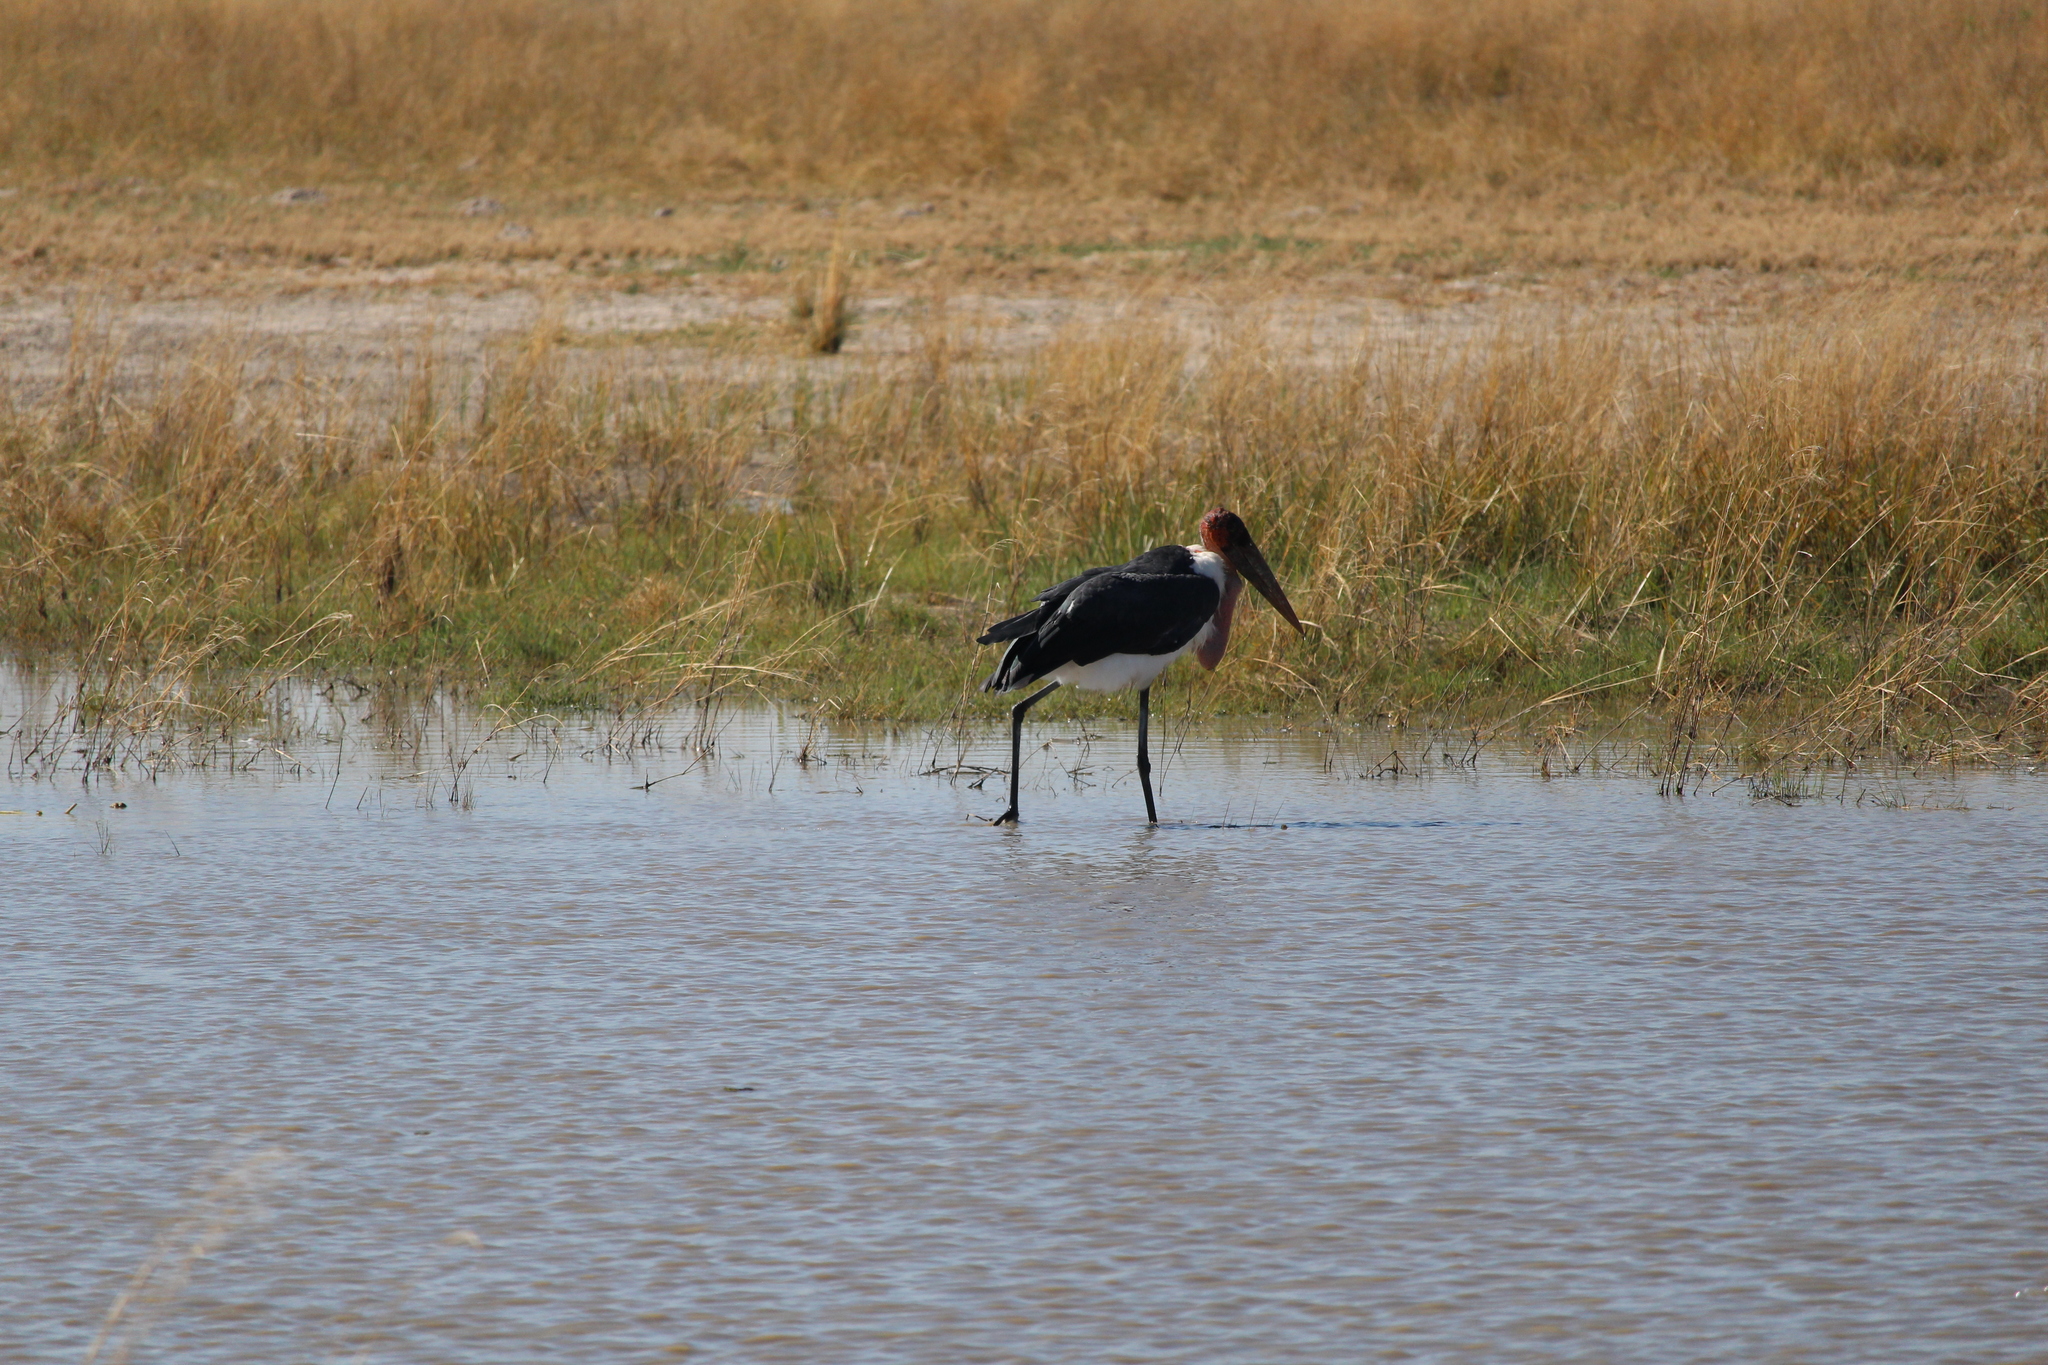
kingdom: Animalia
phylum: Chordata
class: Aves
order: Ciconiiformes
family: Ciconiidae
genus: Leptoptilos
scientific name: Leptoptilos crumenifer
